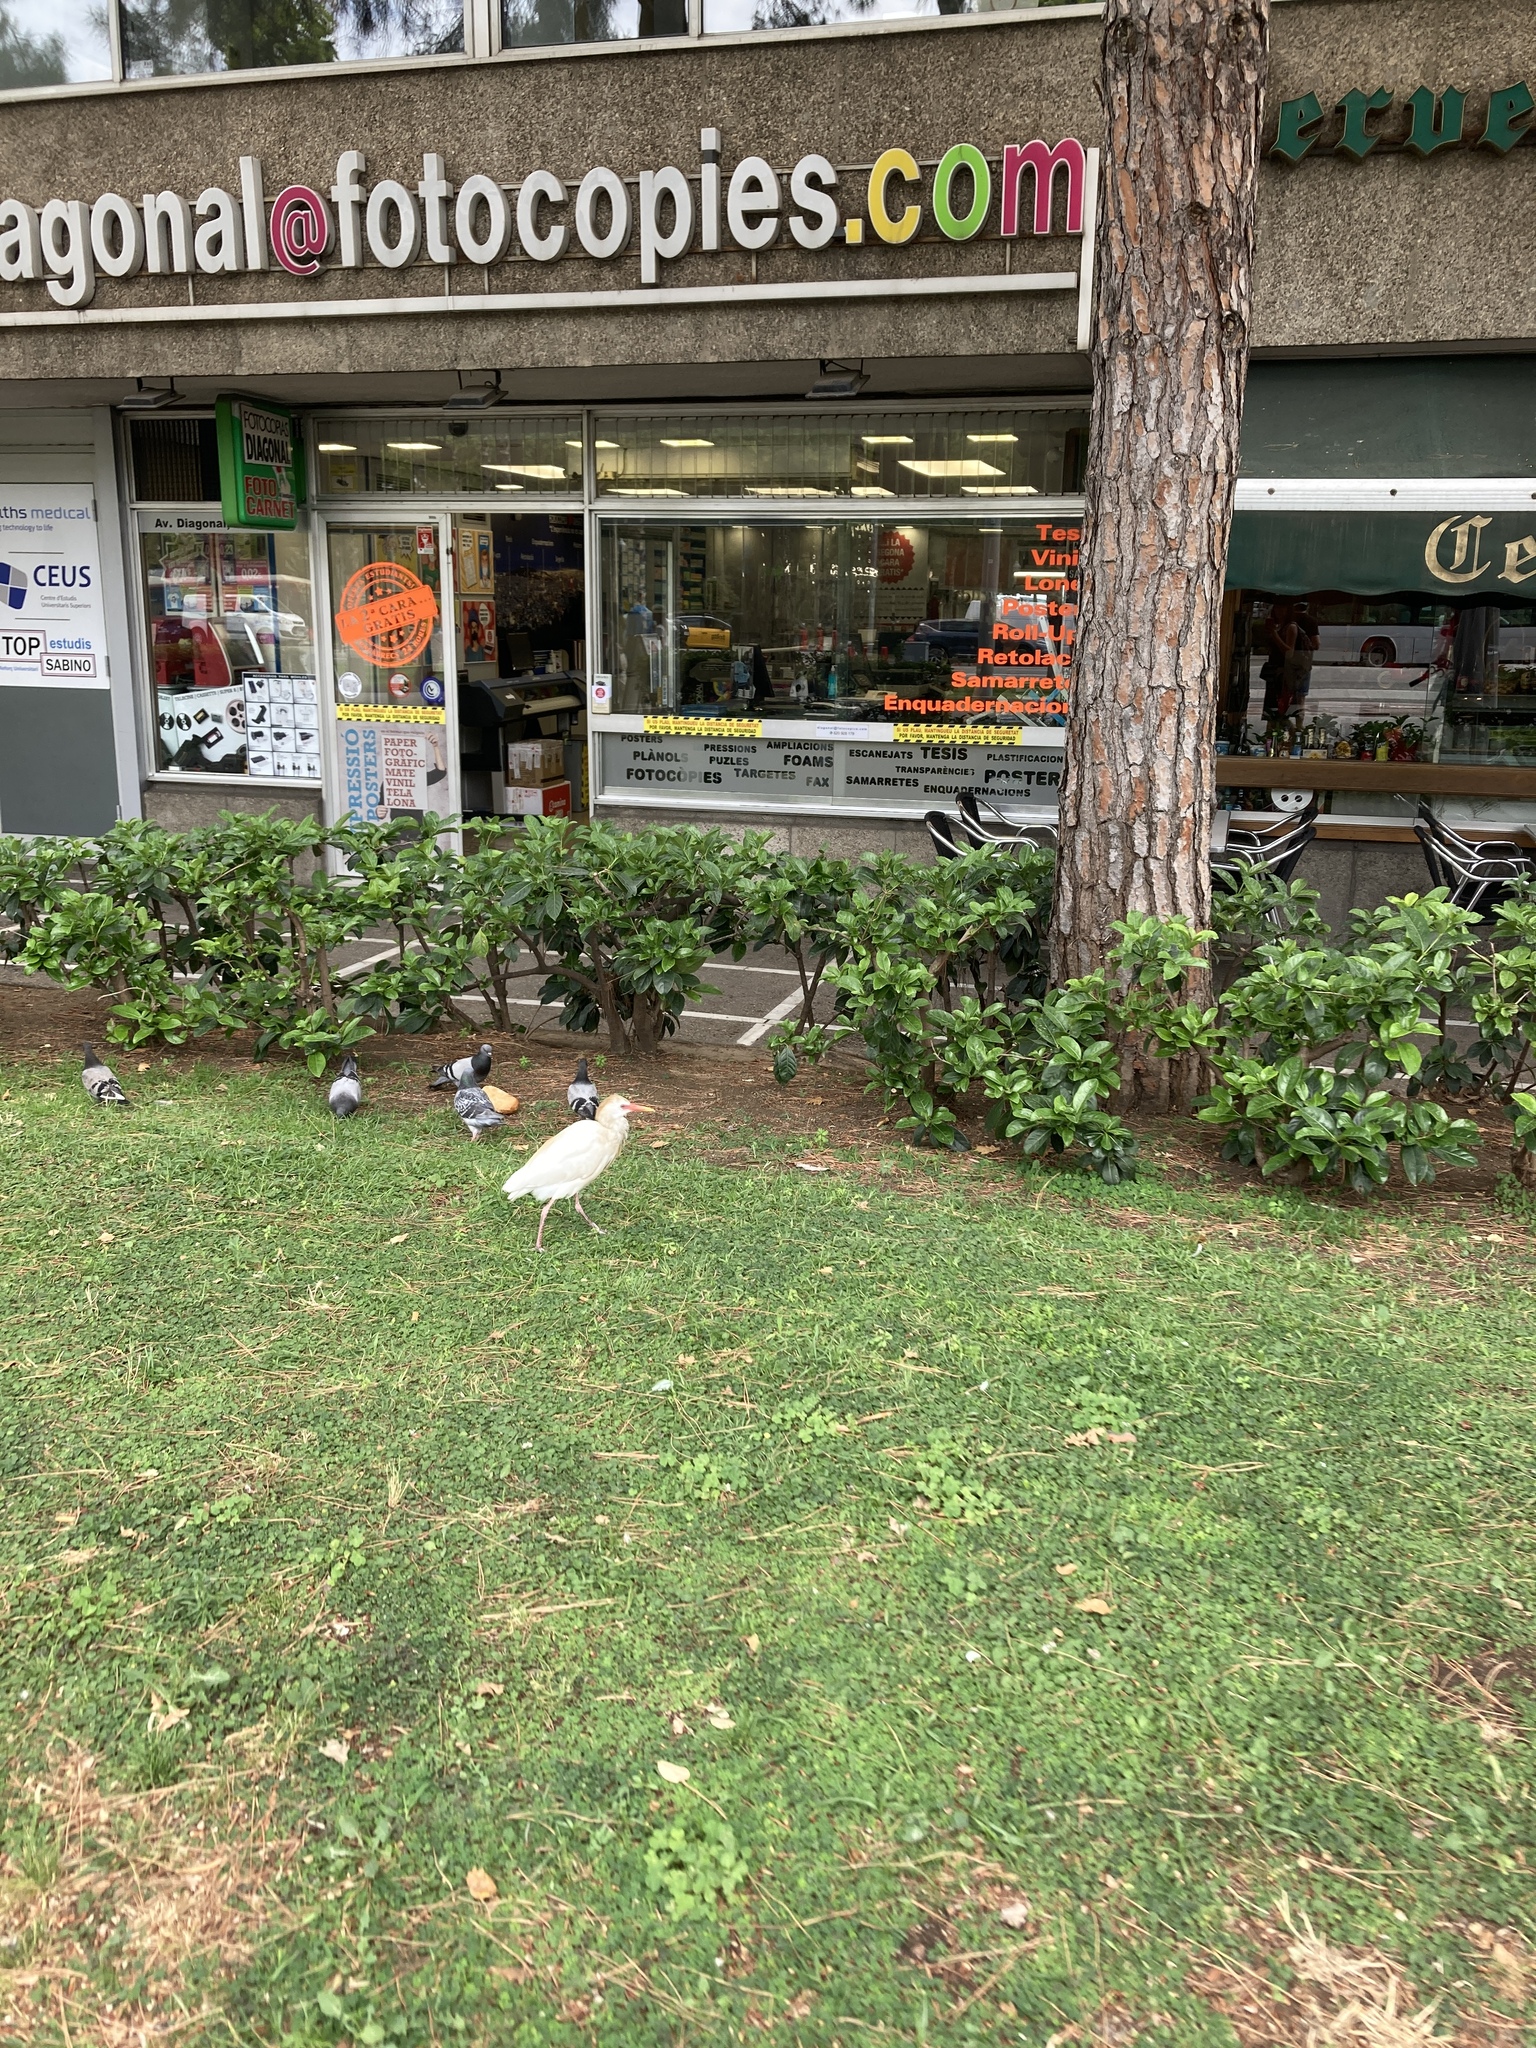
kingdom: Animalia
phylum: Chordata
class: Aves
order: Columbiformes
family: Columbidae
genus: Columba
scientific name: Columba livia
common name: Rock pigeon
